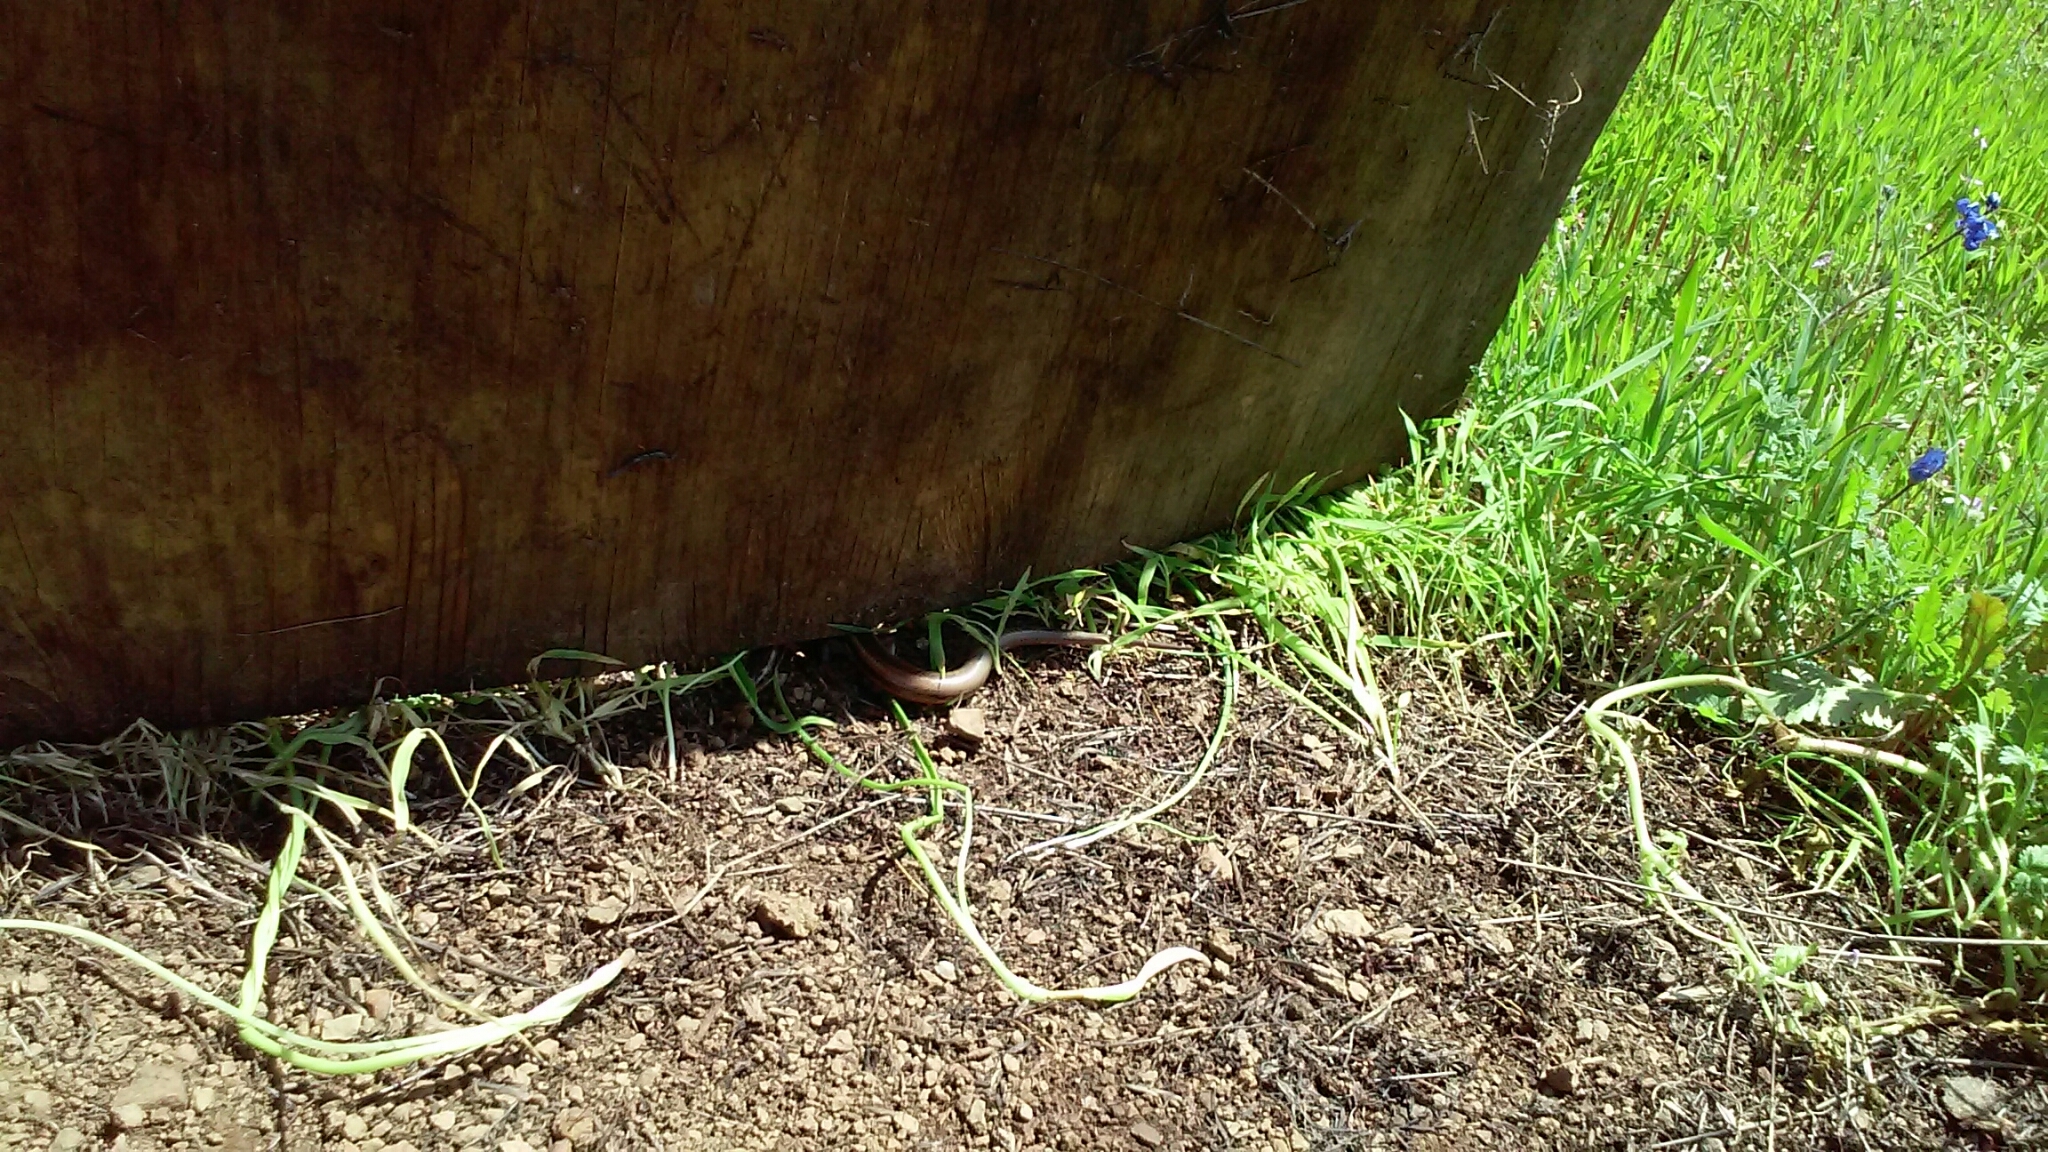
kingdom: Animalia
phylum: Chordata
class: Squamata
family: Scincidae
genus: Plestiodon
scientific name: Plestiodon skiltonianus
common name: Coronado island skink [interparietalis]
